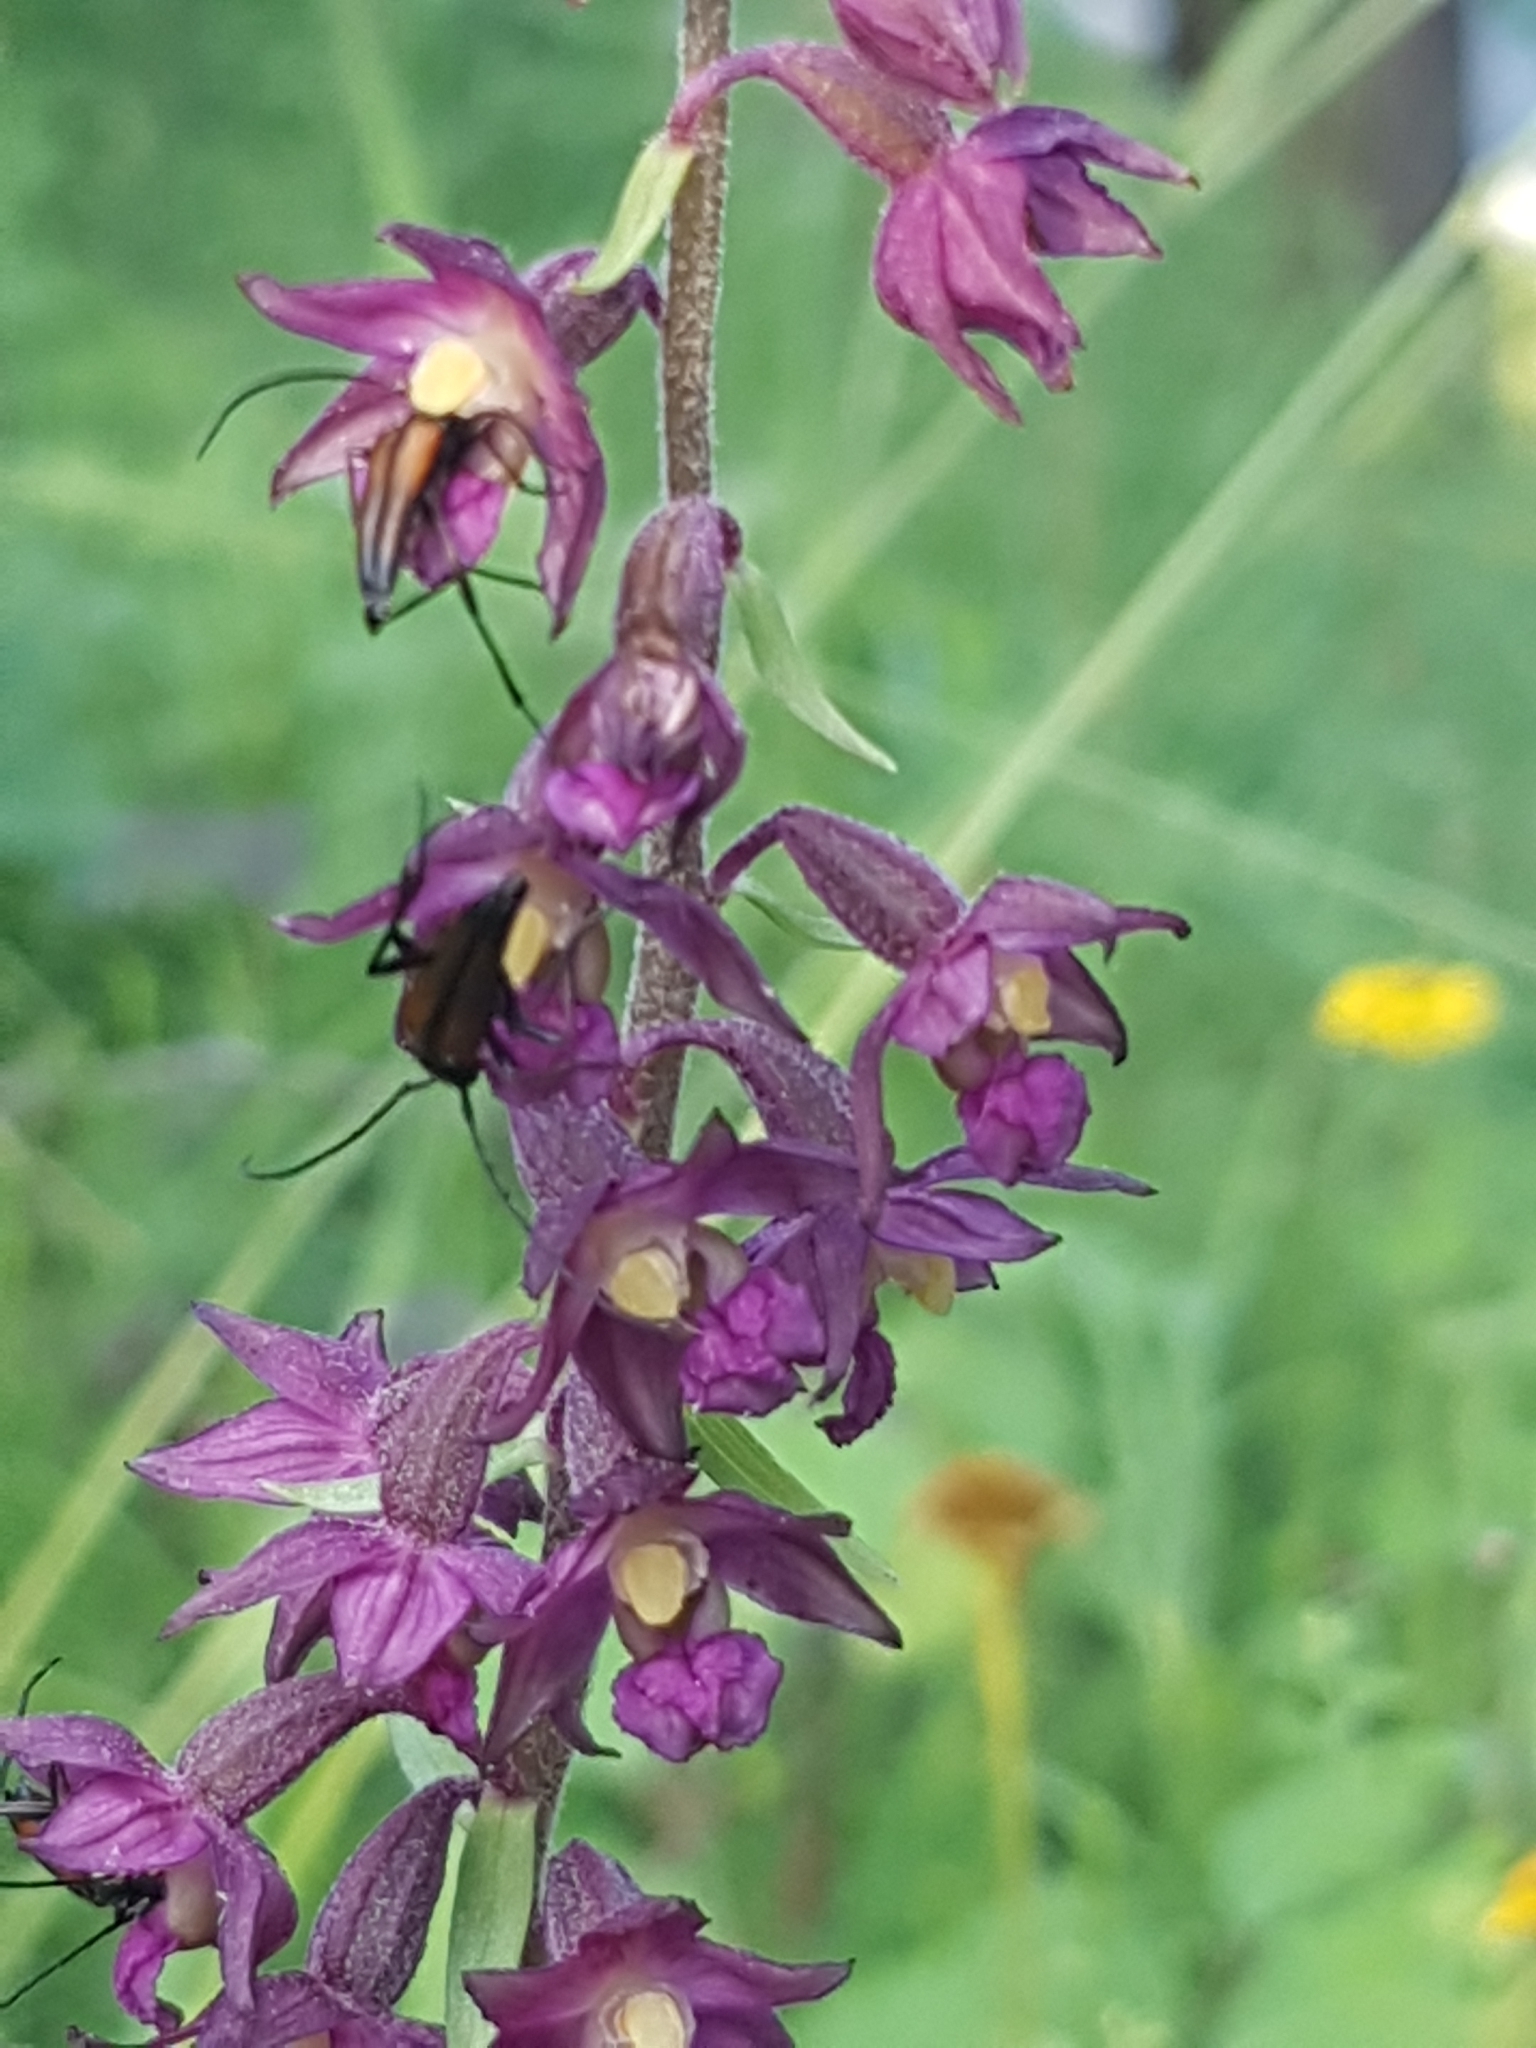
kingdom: Animalia
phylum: Arthropoda
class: Insecta
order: Coleoptera
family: Cerambycidae
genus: Stenurella
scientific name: Stenurella melanura
